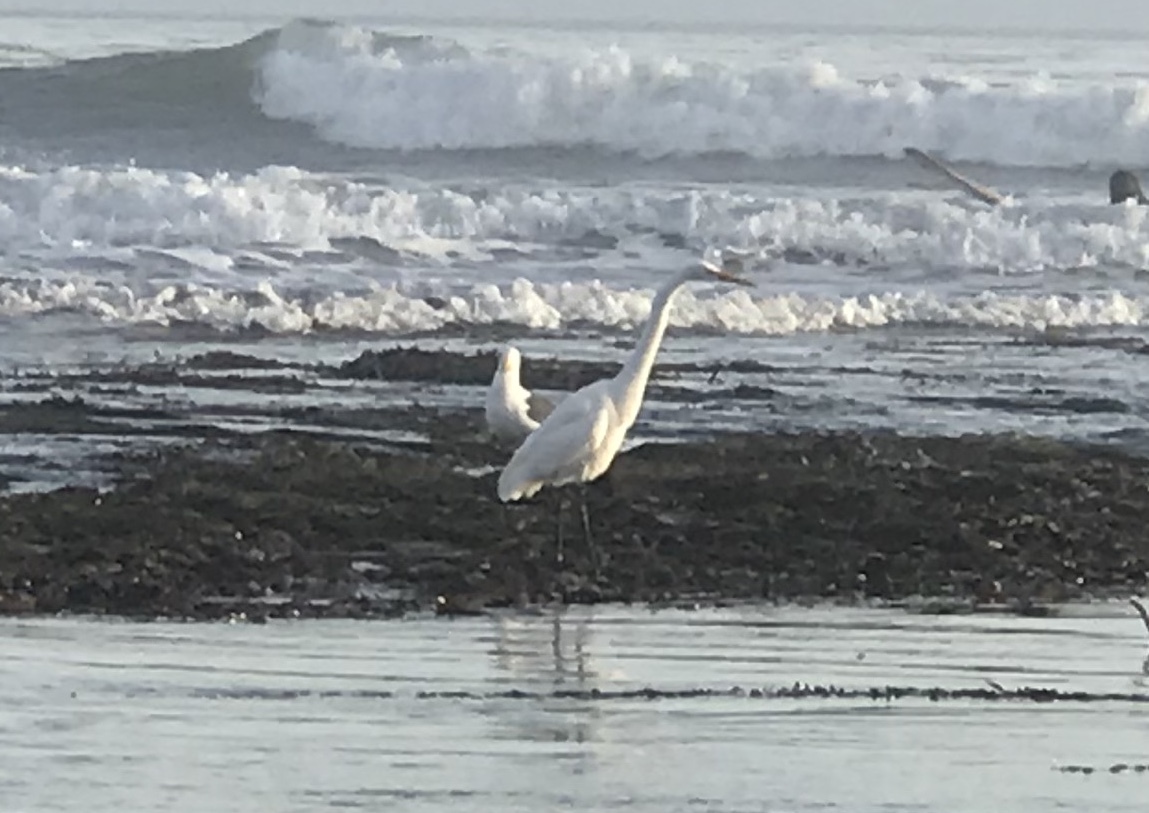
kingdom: Animalia
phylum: Chordata
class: Aves
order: Pelecaniformes
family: Ardeidae
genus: Ardea
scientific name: Ardea alba
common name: Great egret
